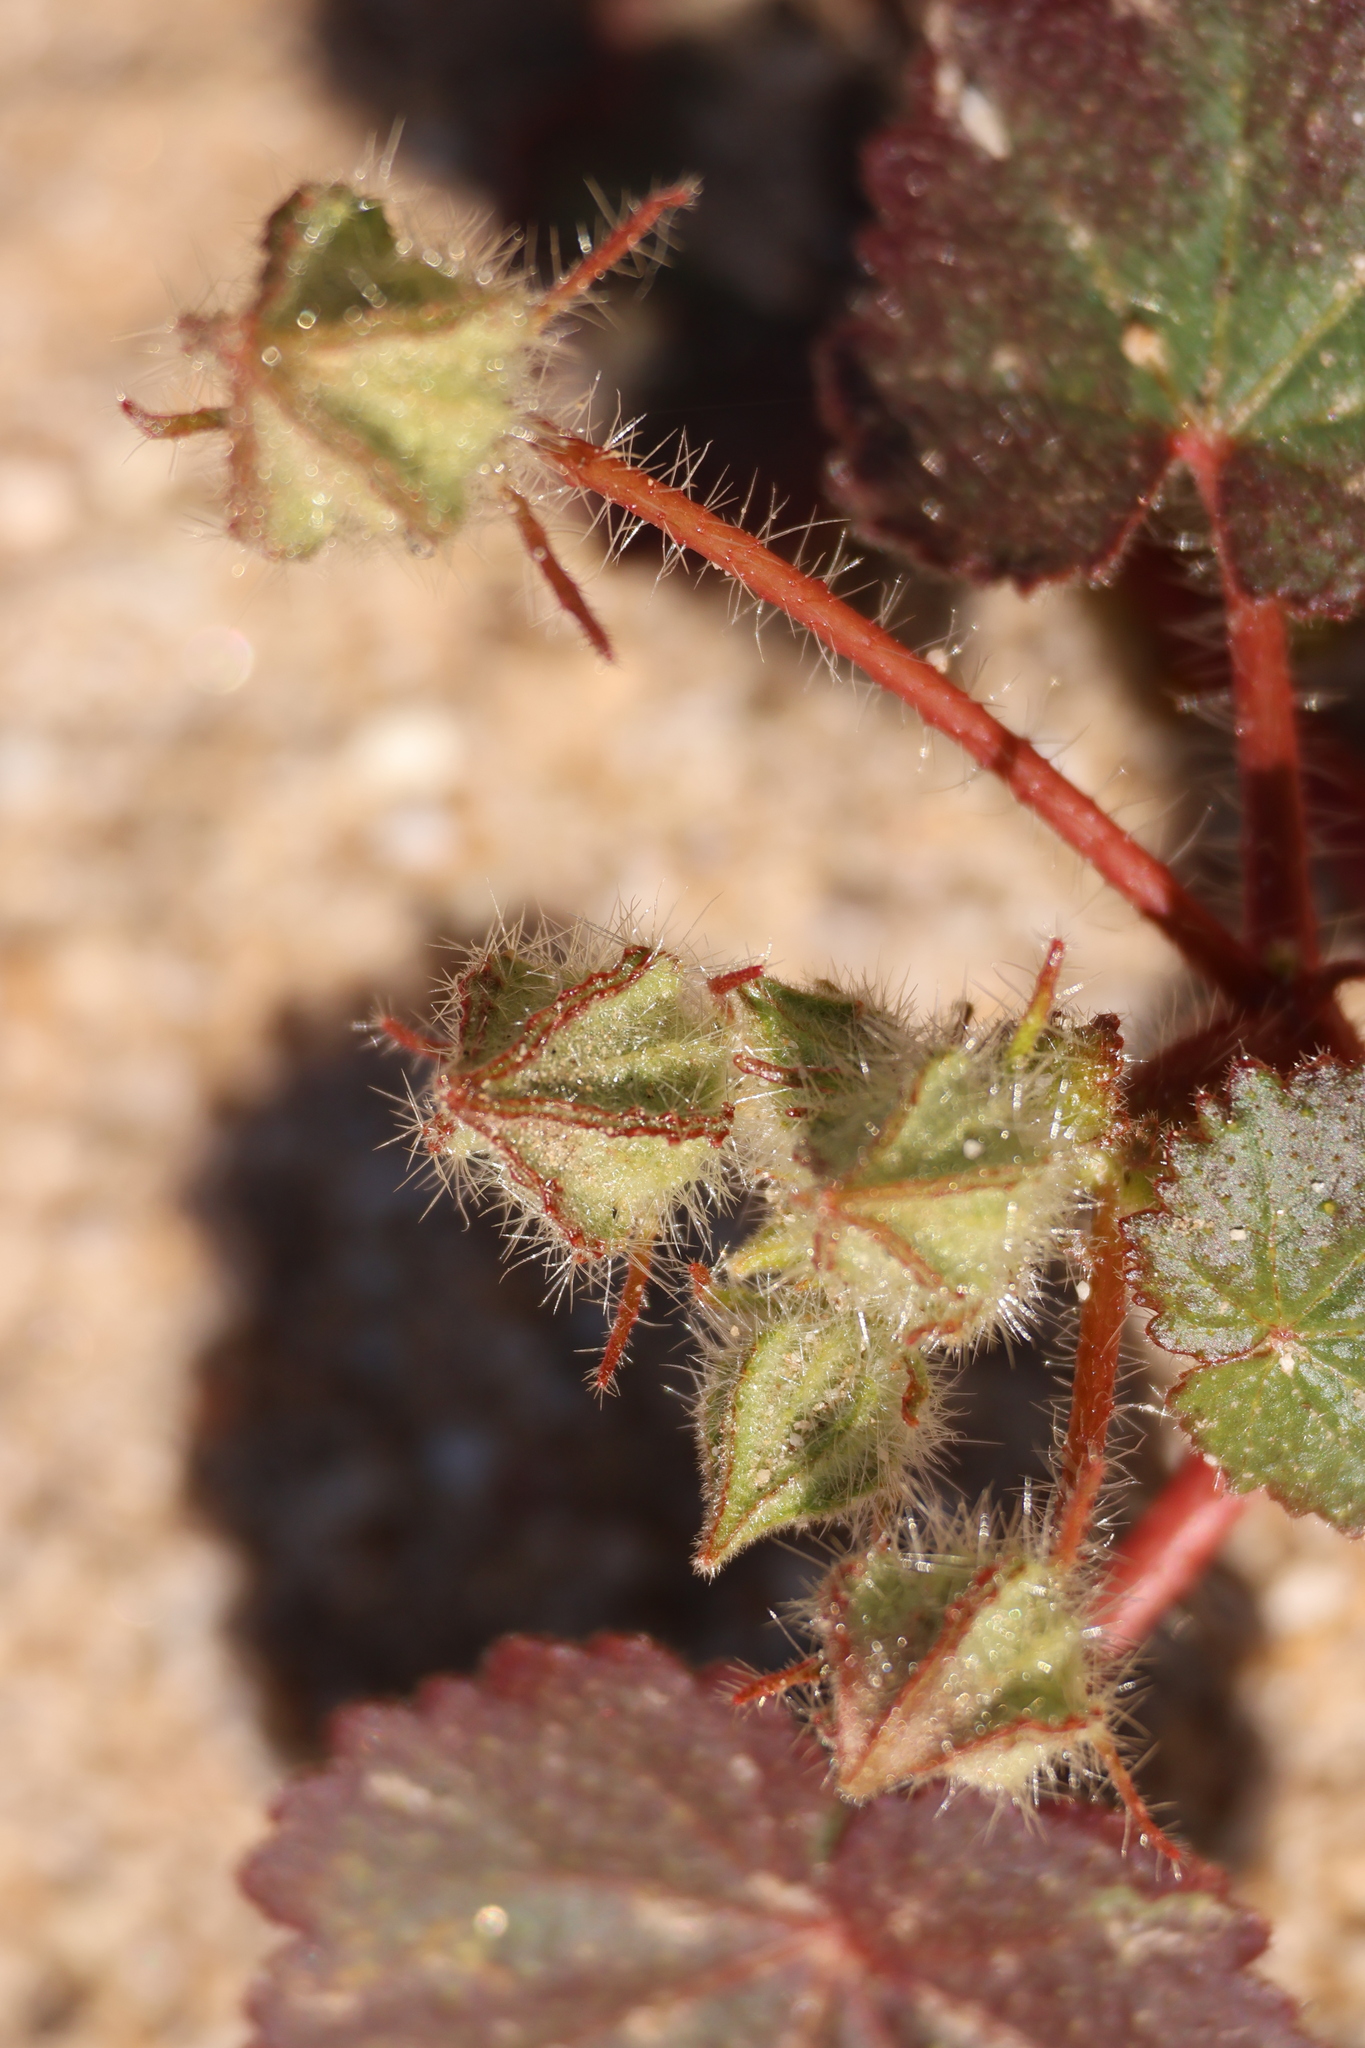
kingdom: Plantae
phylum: Tracheophyta
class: Magnoliopsida
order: Malvales
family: Malvaceae
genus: Eremalche
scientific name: Eremalche rotundifolia
